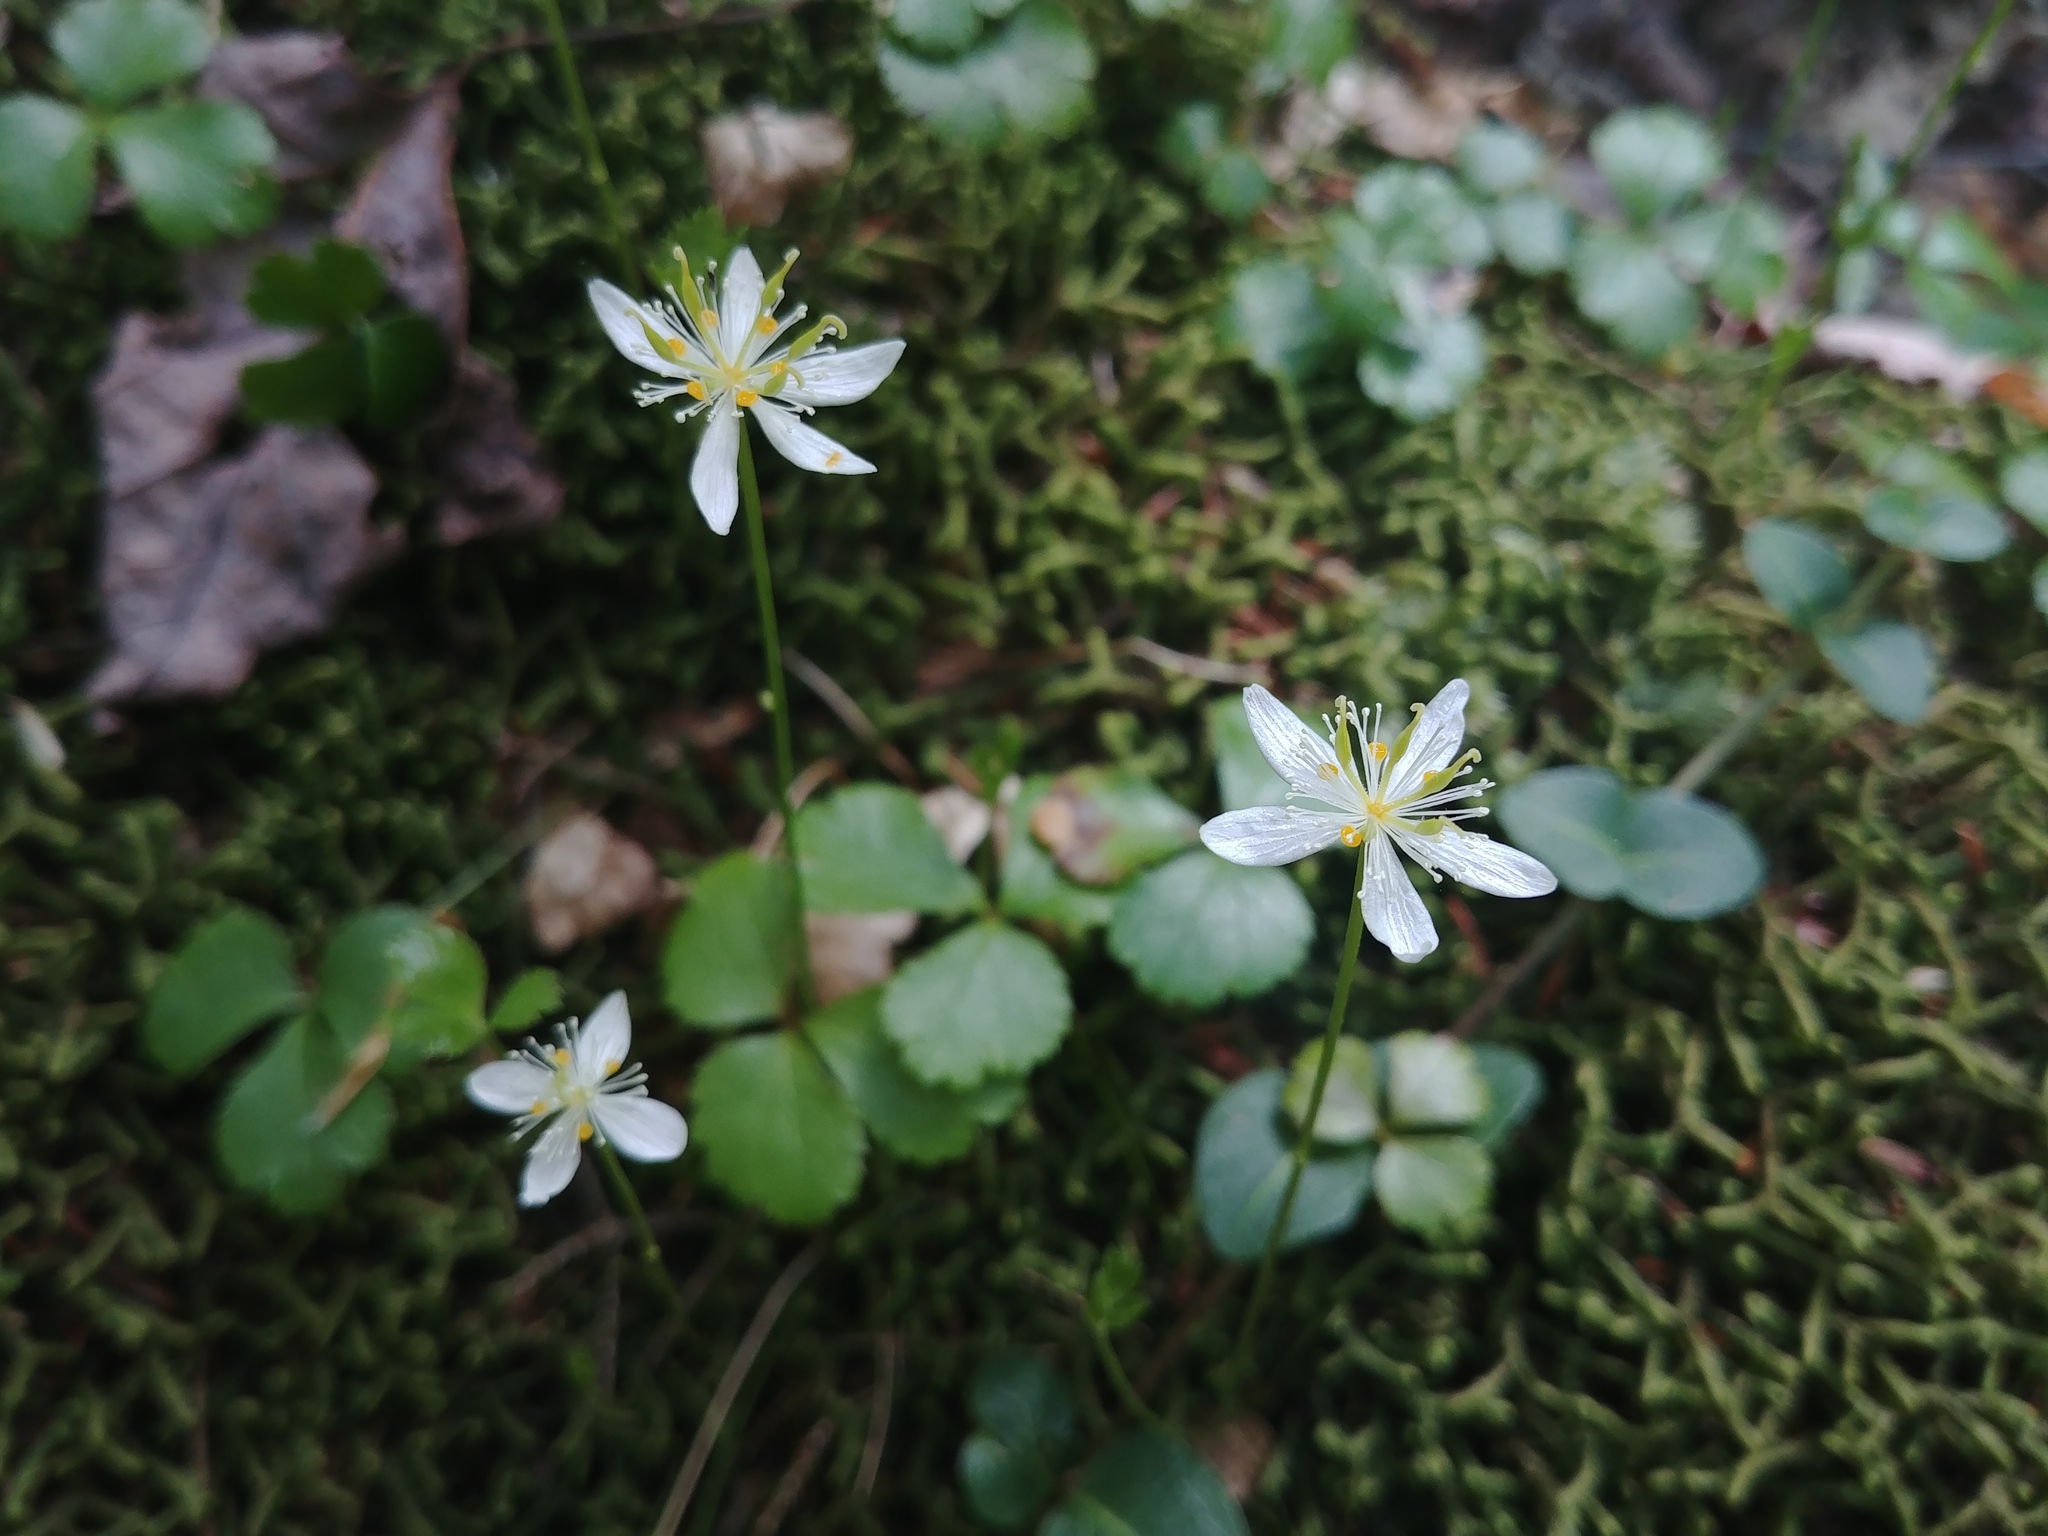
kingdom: Plantae
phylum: Tracheophyta
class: Magnoliopsida
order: Ranunculales
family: Ranunculaceae
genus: Coptis
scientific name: Coptis trifolia
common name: Canker-root
